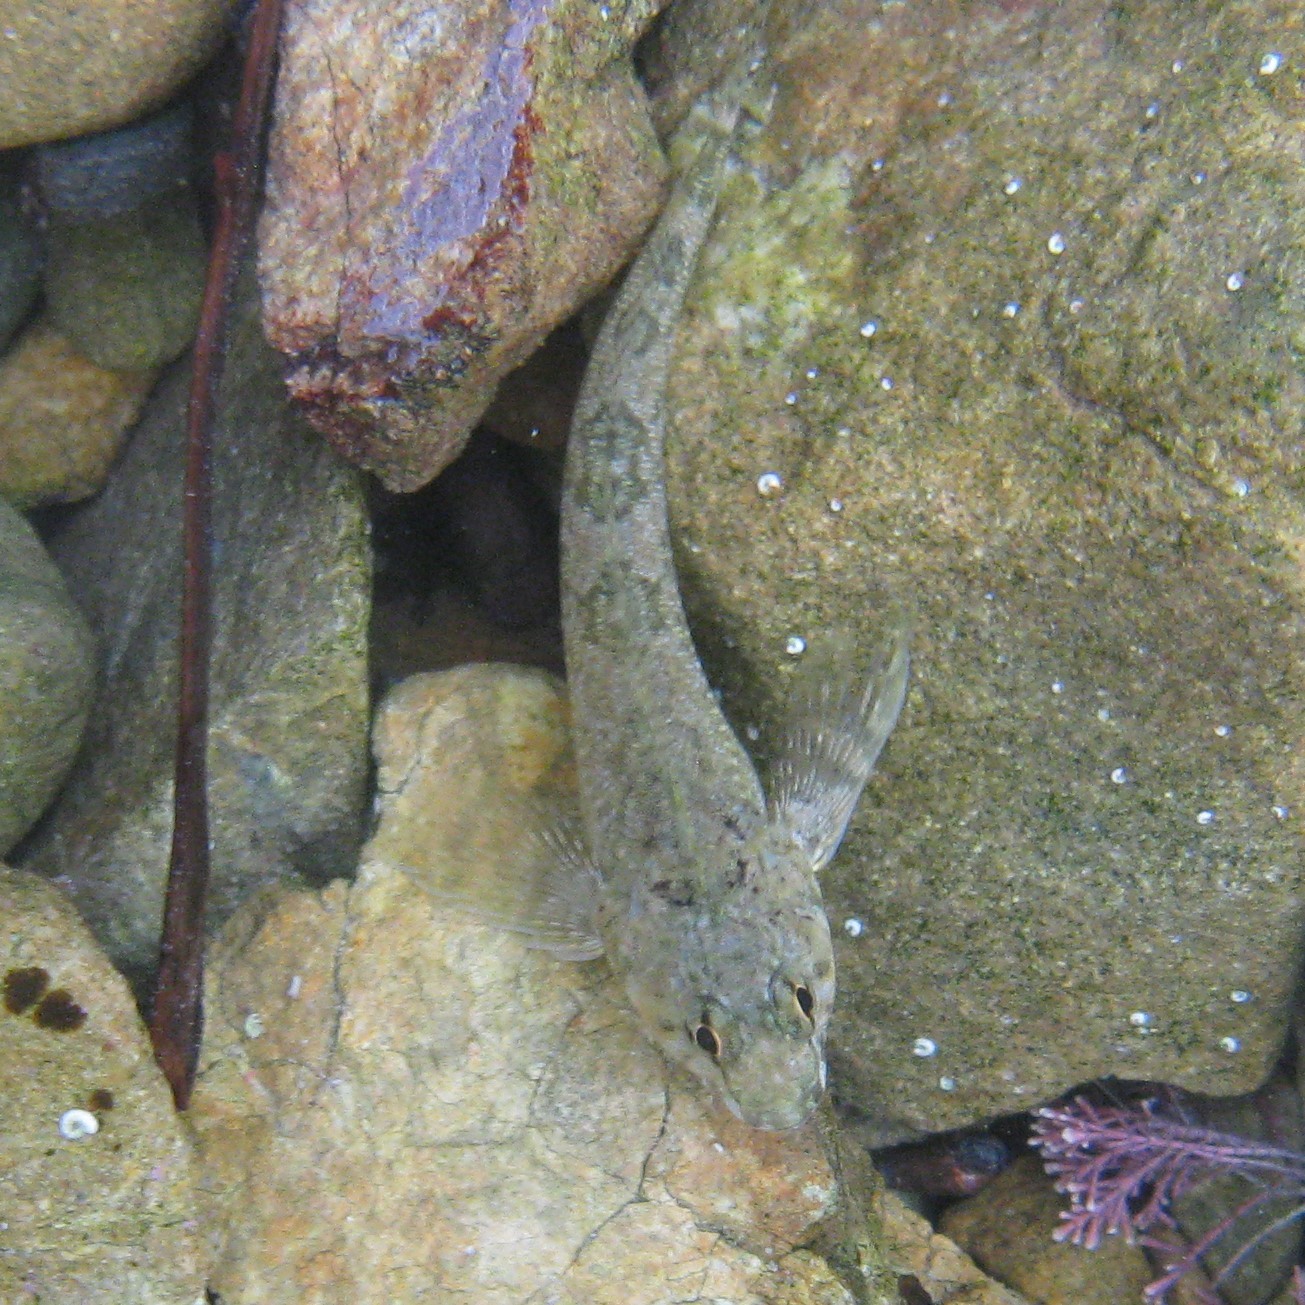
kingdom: Animalia
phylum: Chordata
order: Perciformes
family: Tripterygiidae
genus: Bellapiscis
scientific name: Bellapiscis medius
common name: Twister
